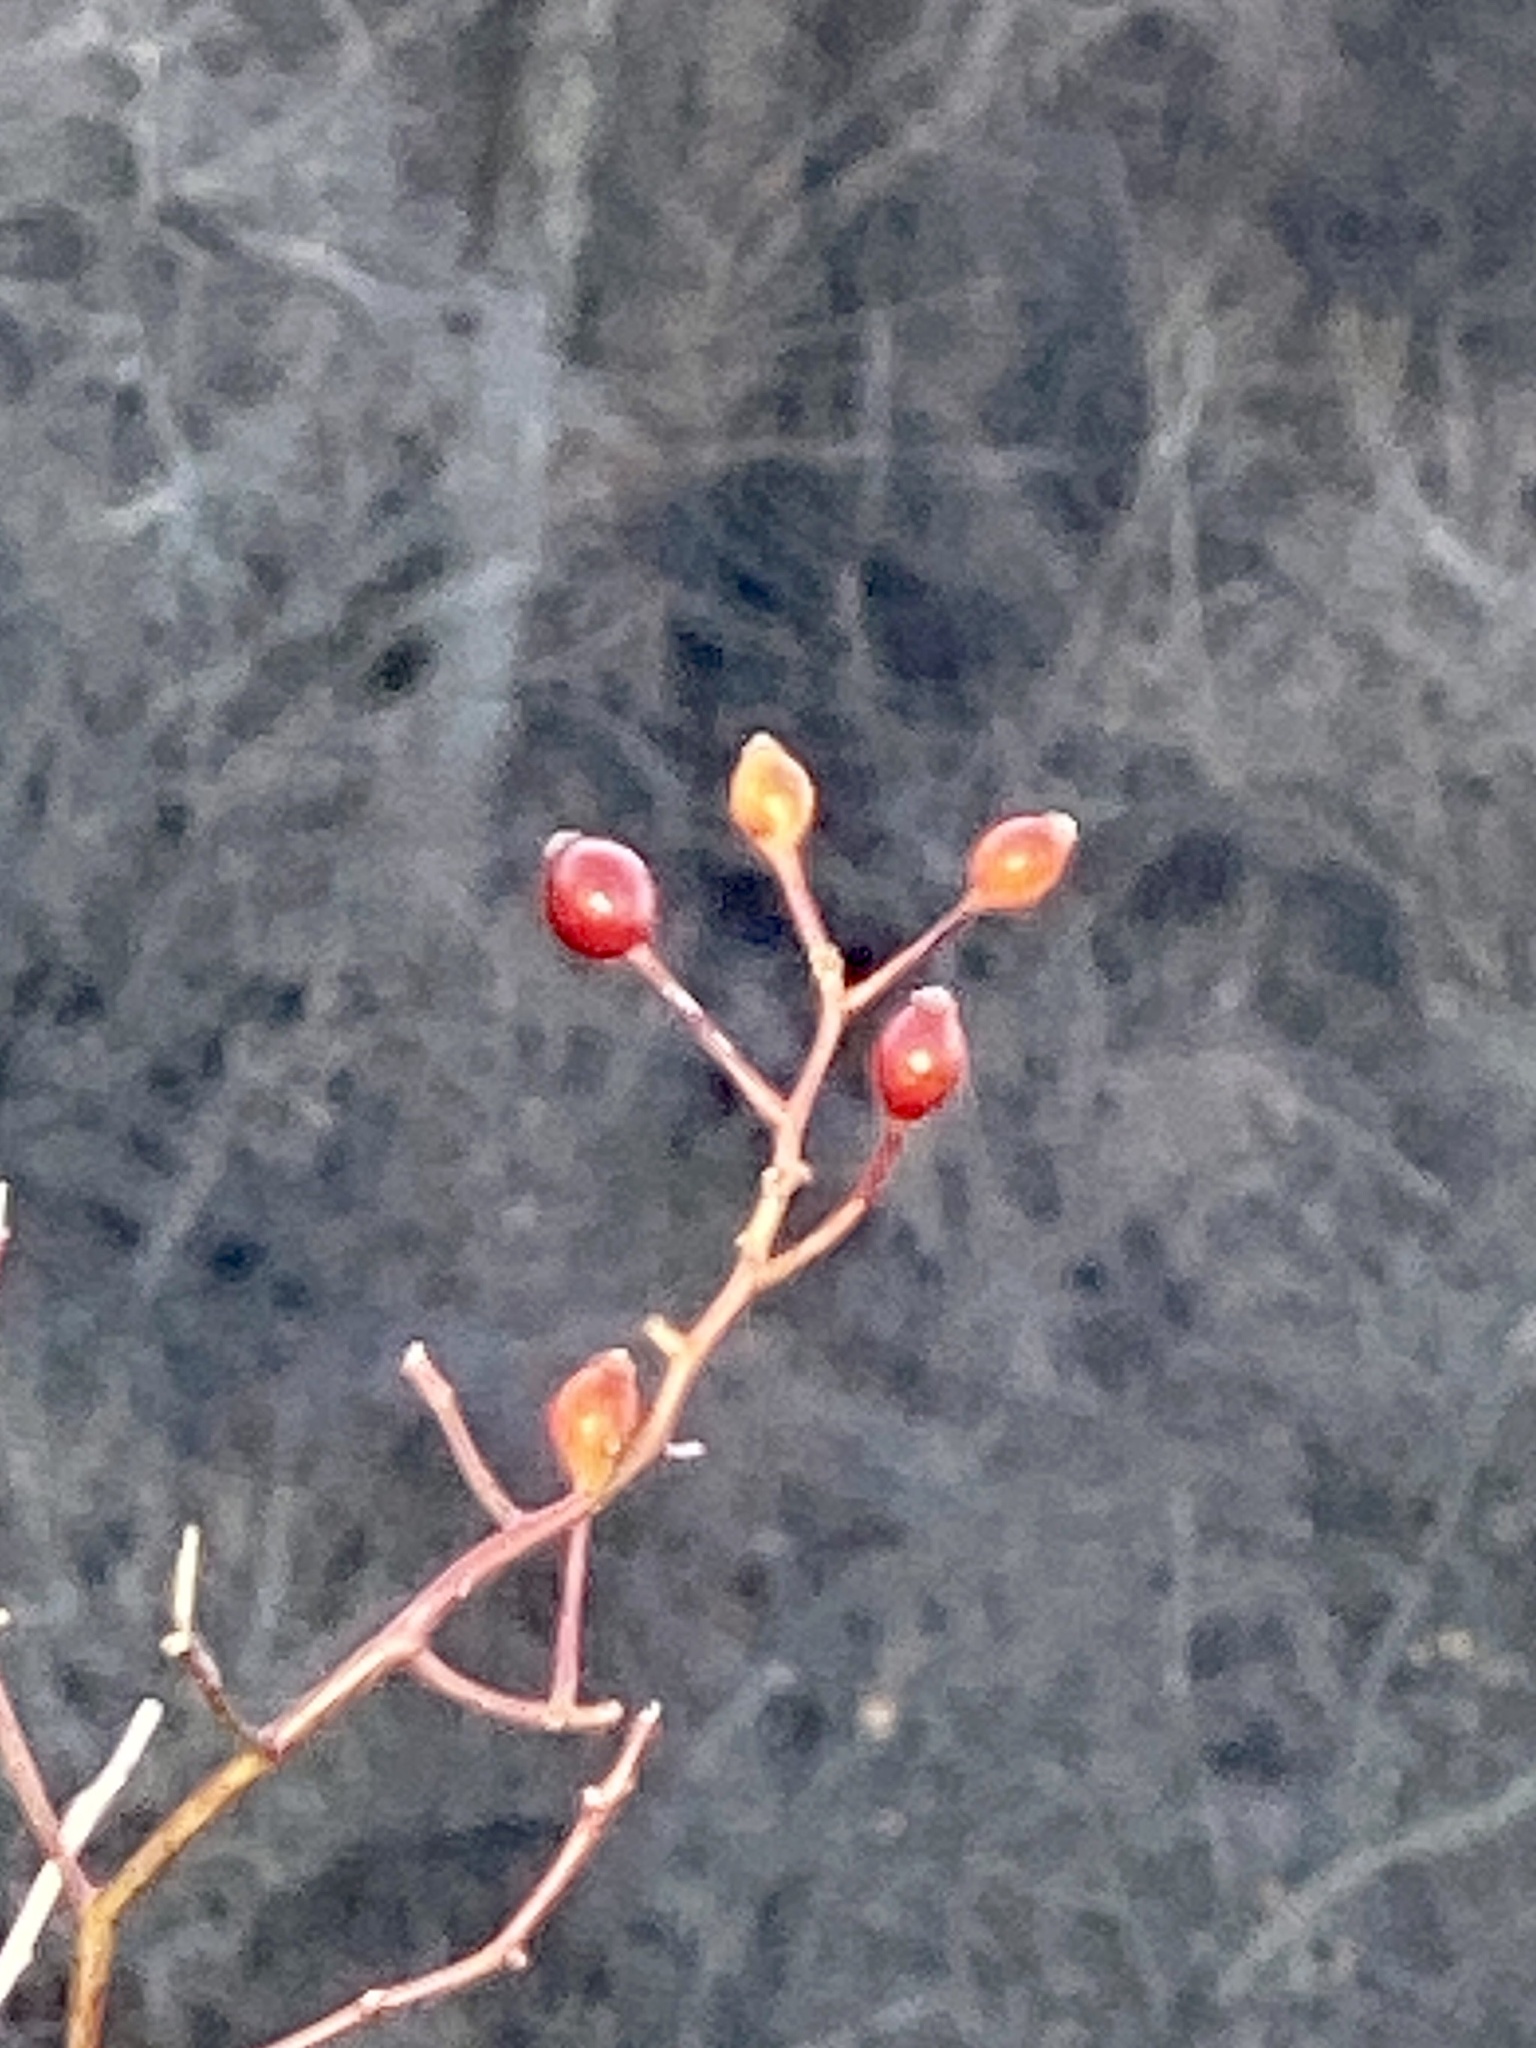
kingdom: Plantae
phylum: Tracheophyta
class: Magnoliopsida
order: Rosales
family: Rosaceae
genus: Rosa
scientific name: Rosa multiflora
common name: Multiflora rose
